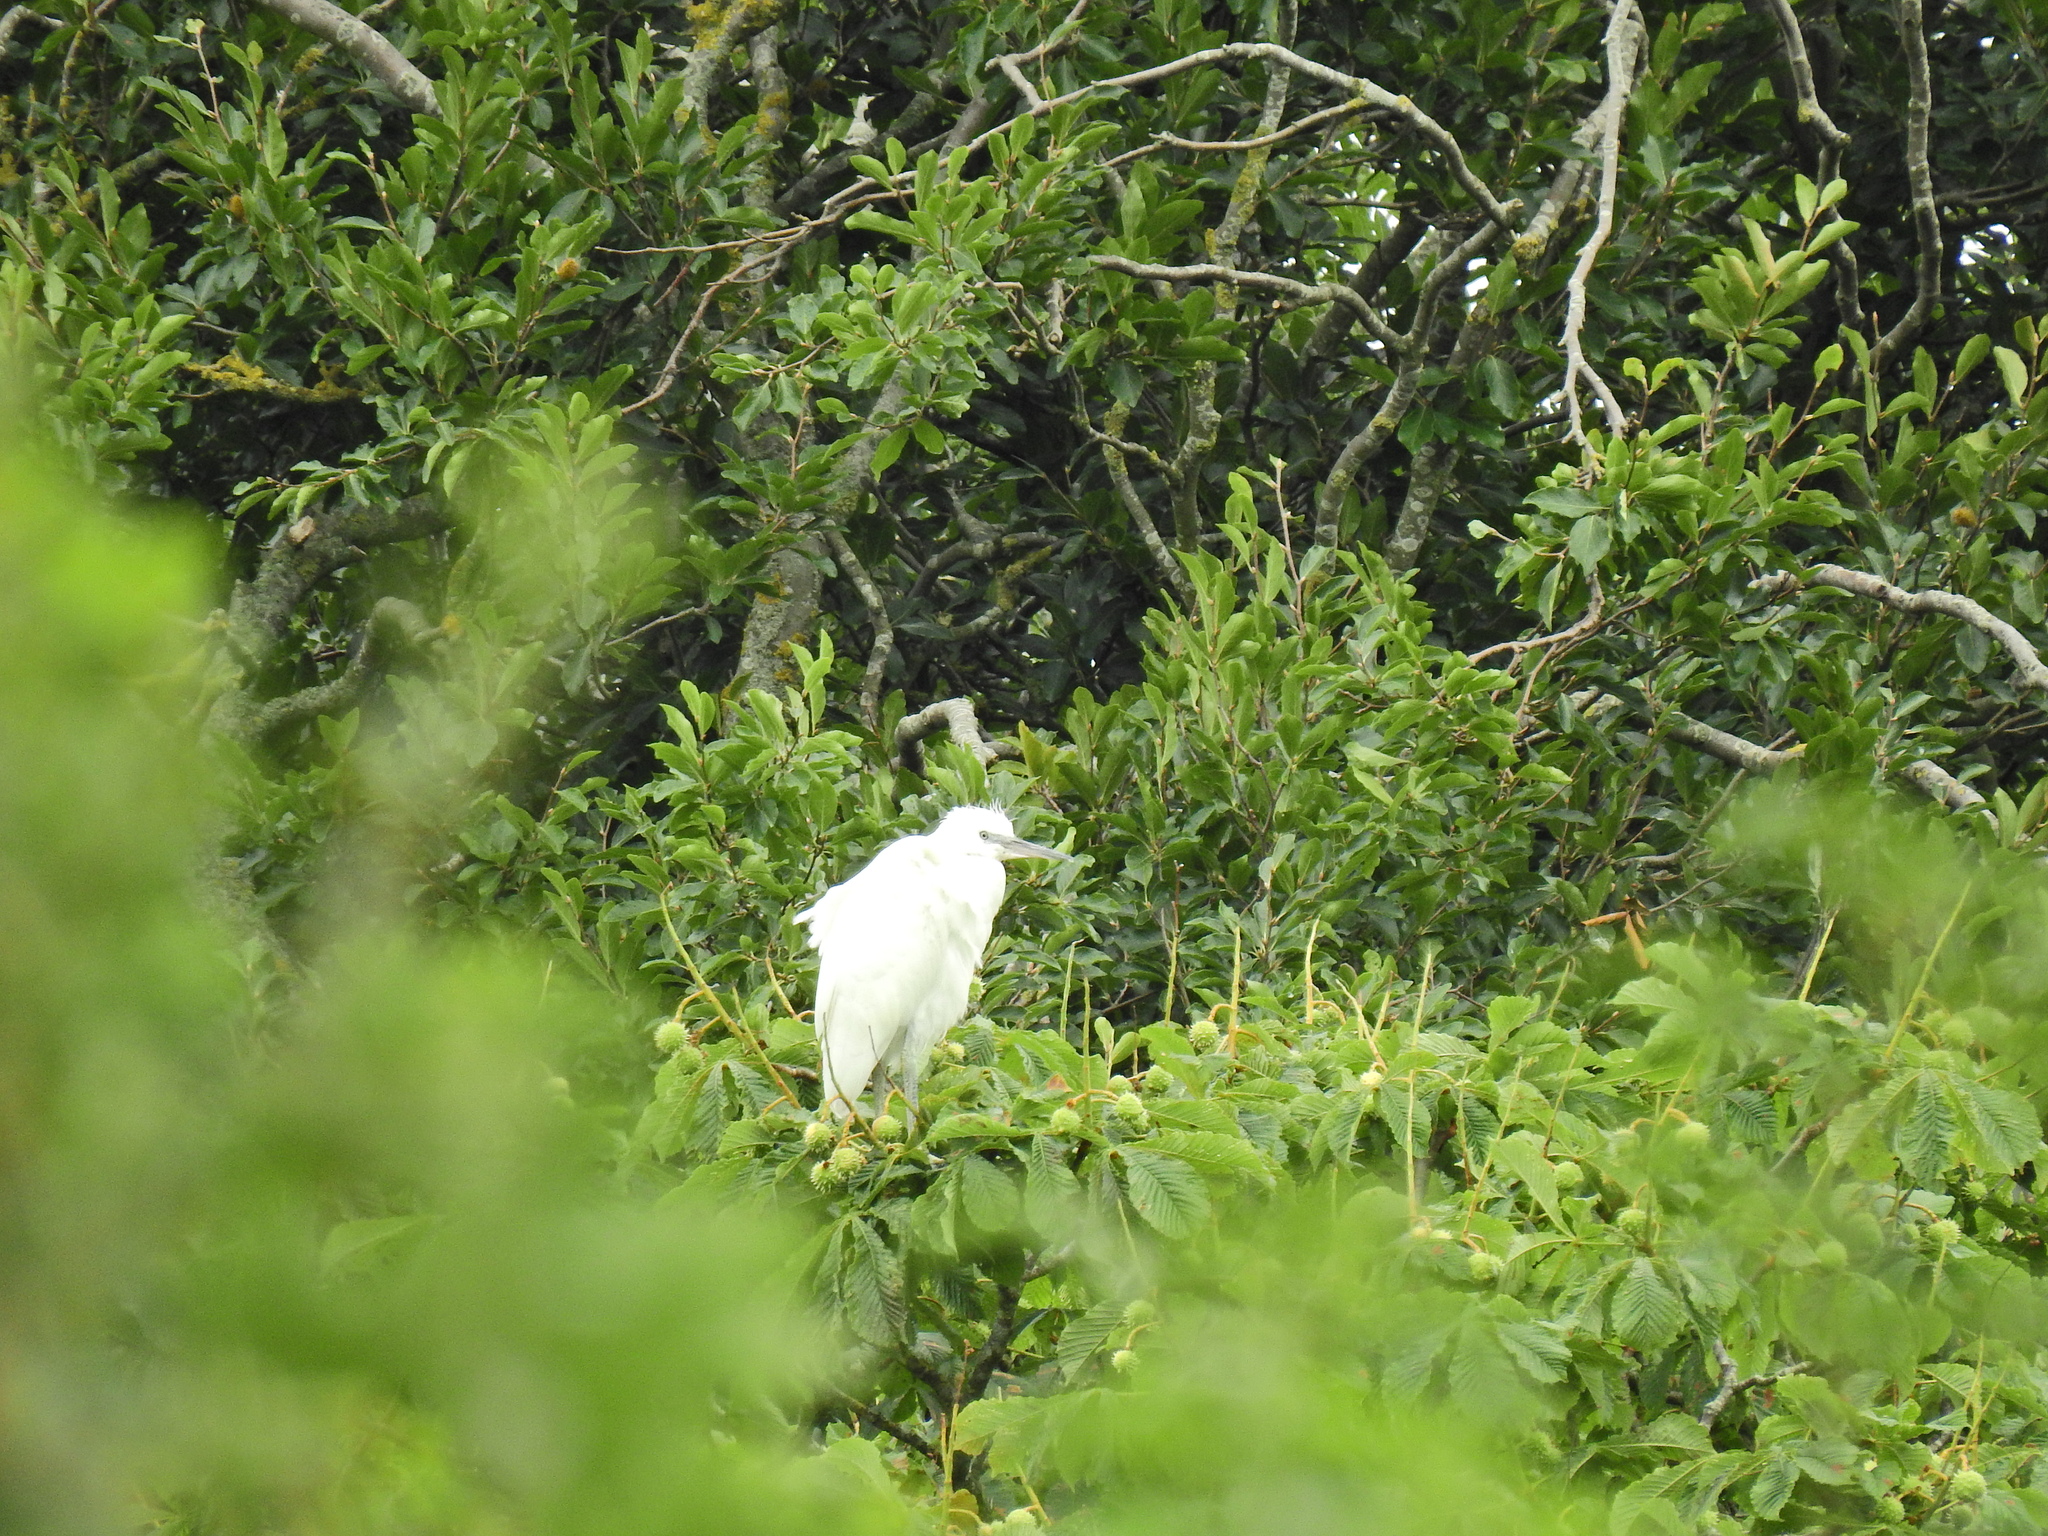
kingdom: Animalia
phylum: Chordata
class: Aves
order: Pelecaniformes
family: Ardeidae
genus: Egretta
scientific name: Egretta garzetta
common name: Little egret
